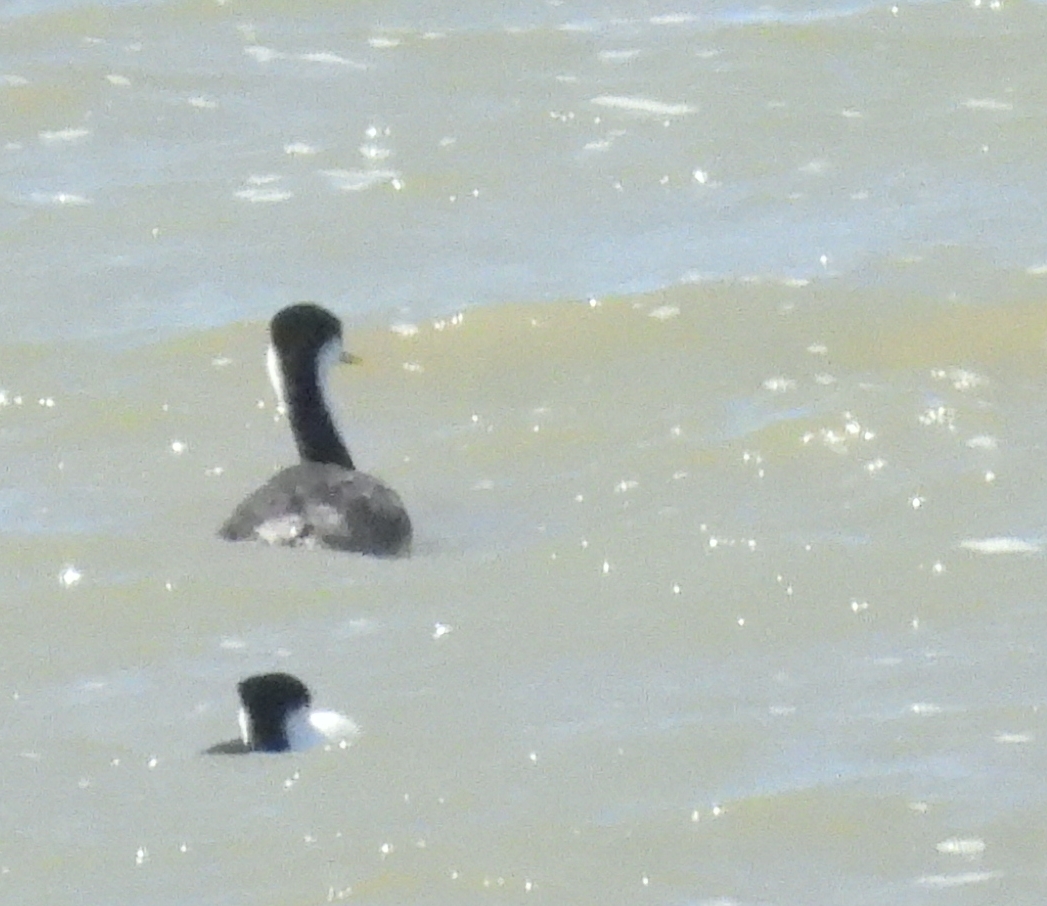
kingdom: Animalia
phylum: Chordata
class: Aves
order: Podicipediformes
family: Podicipedidae
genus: Aechmophorus
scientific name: Aechmophorus occidentalis
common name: Western grebe
